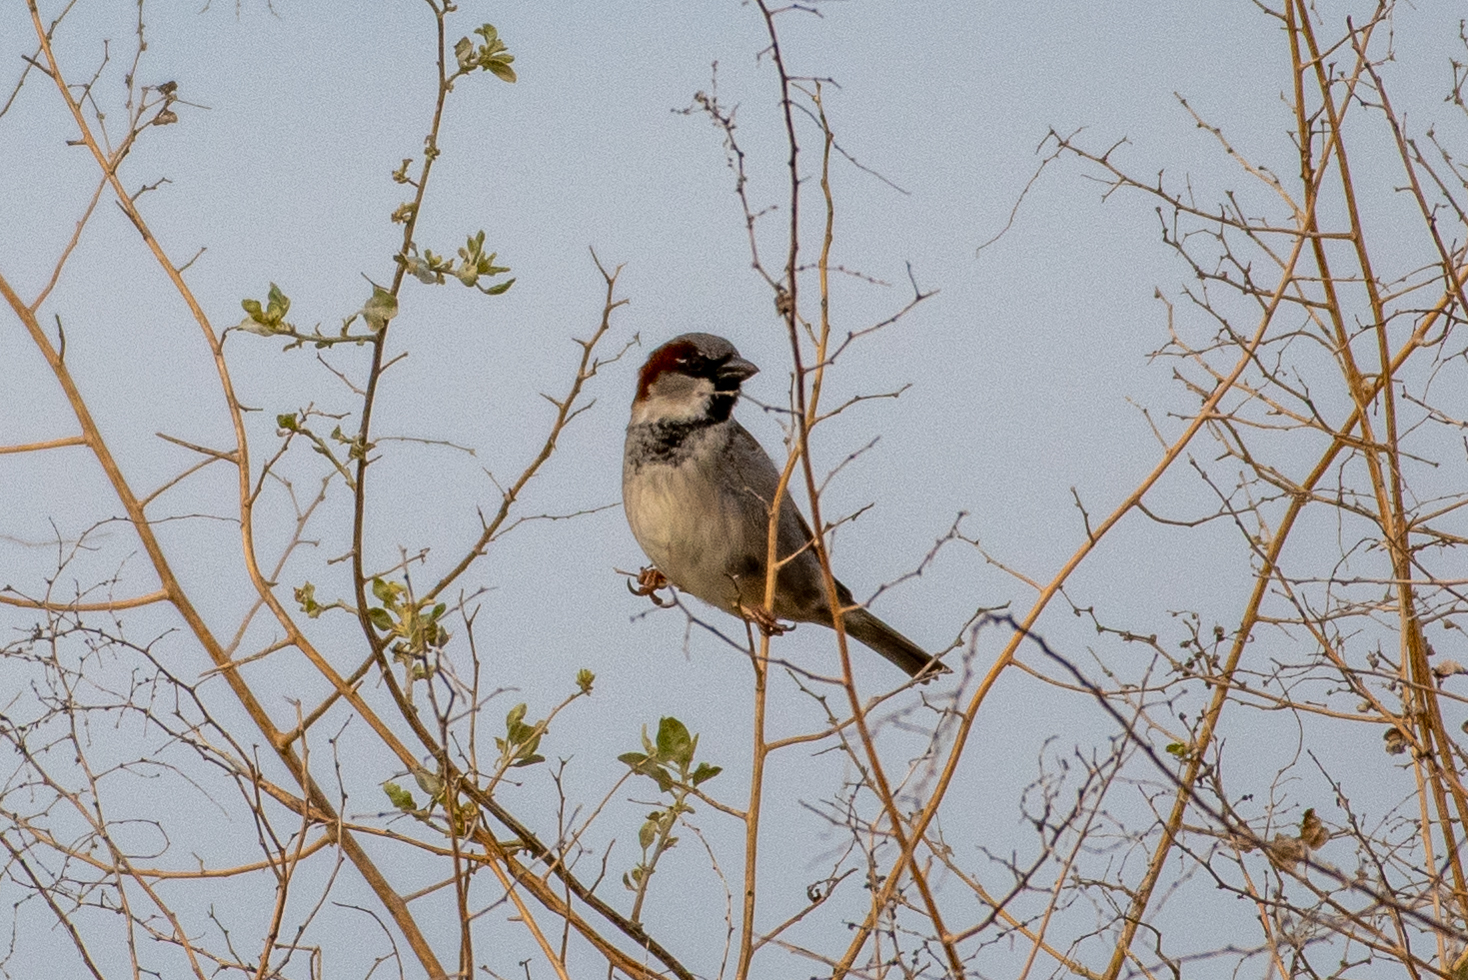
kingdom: Animalia
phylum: Chordata
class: Aves
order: Passeriformes
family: Passeridae
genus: Passer
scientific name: Passer domesticus
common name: House sparrow
